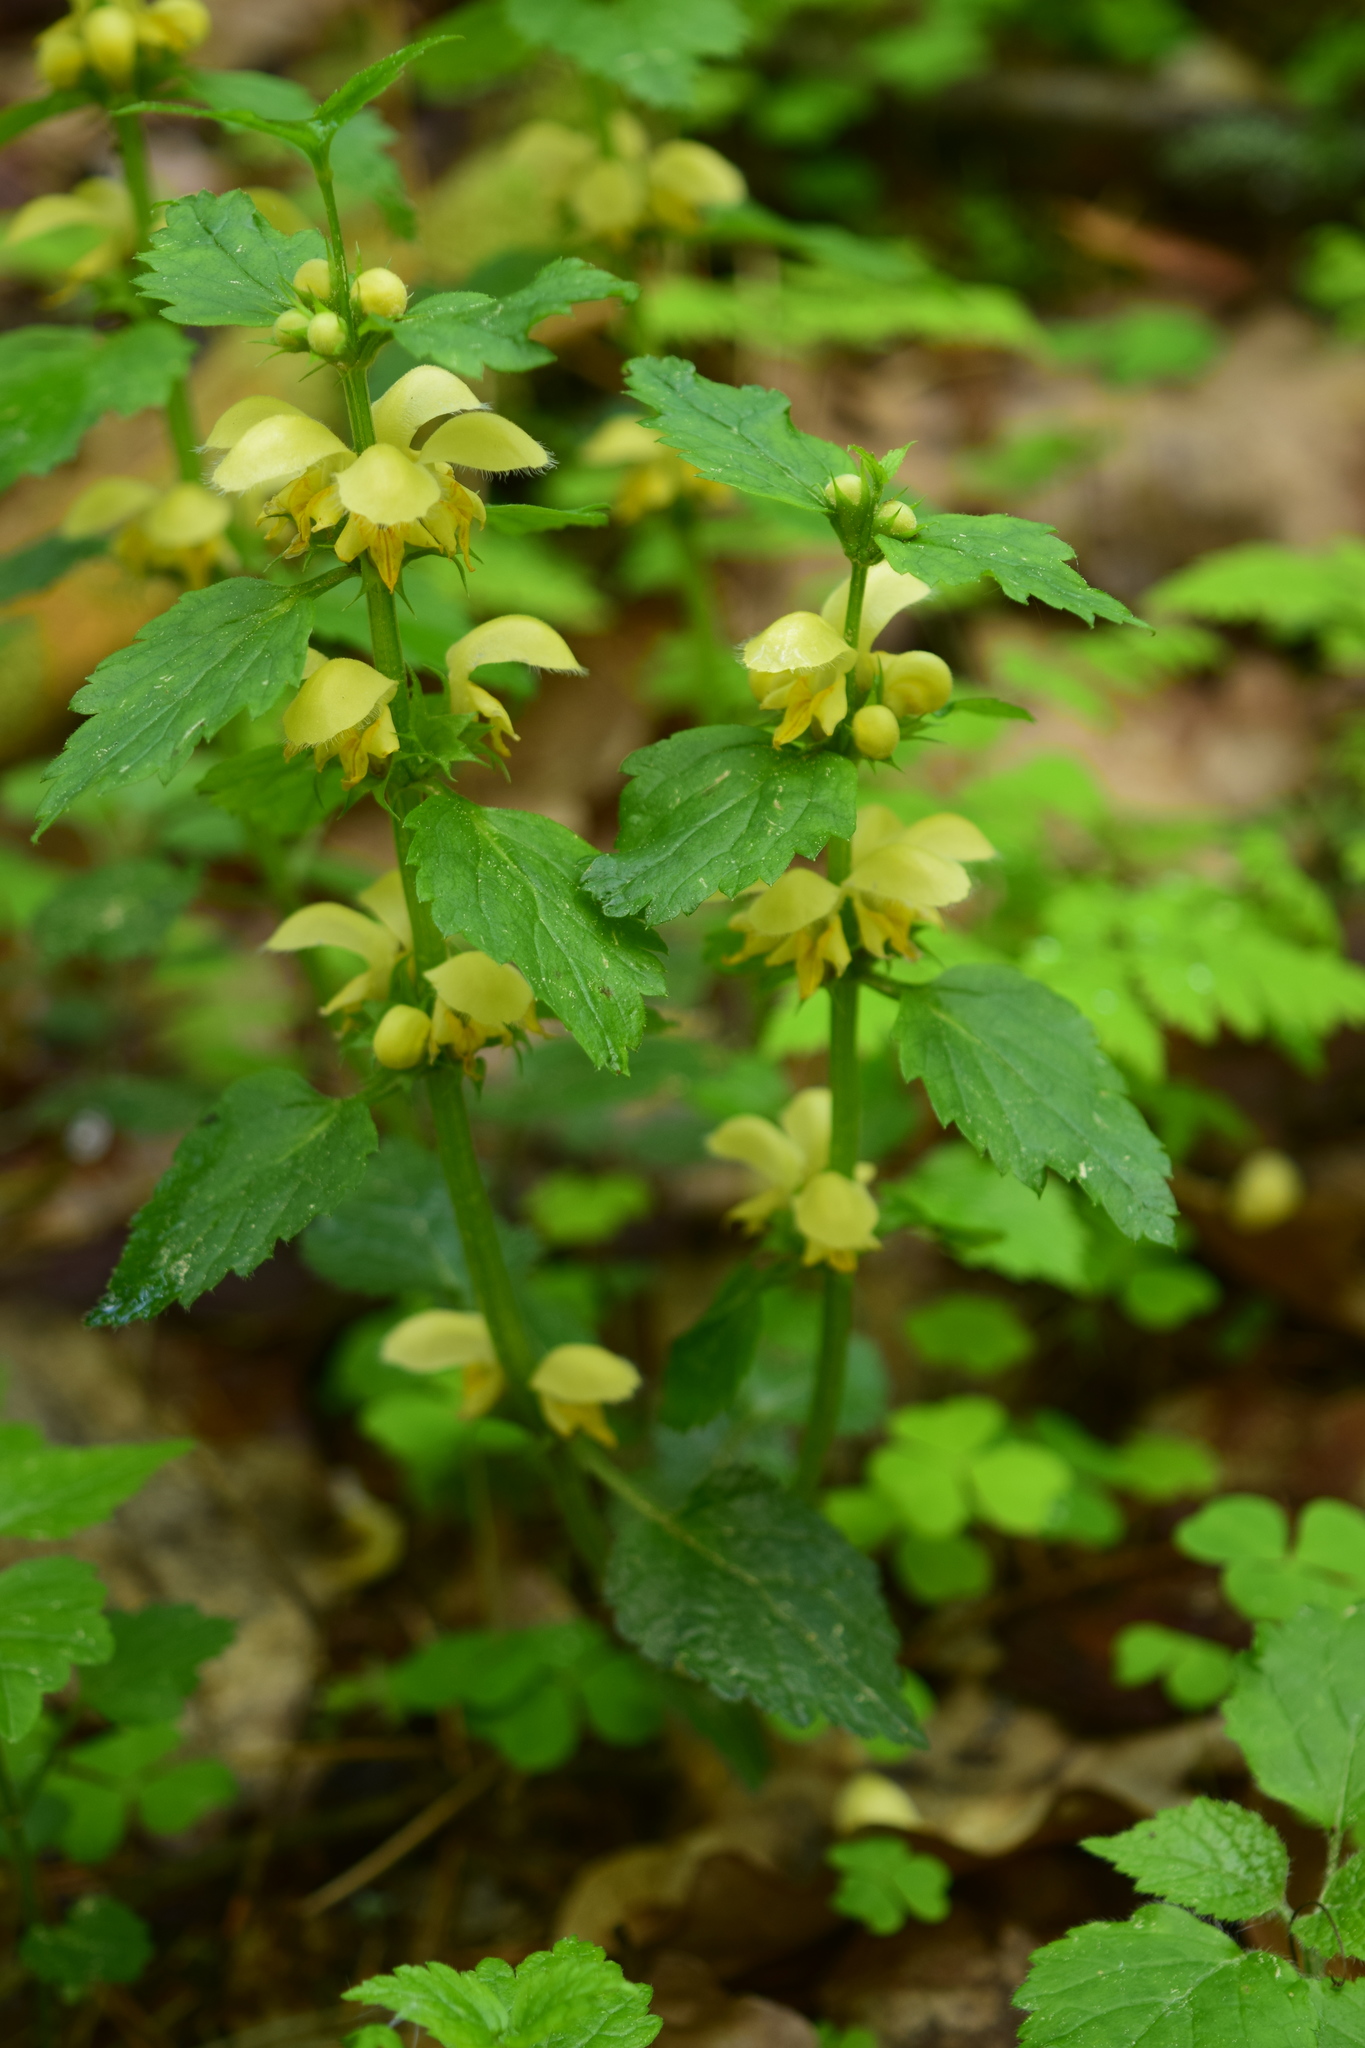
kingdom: Plantae
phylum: Tracheophyta
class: Magnoliopsida
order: Lamiales
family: Lamiaceae
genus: Lamium
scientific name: Lamium galeobdolon
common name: Yellow archangel
